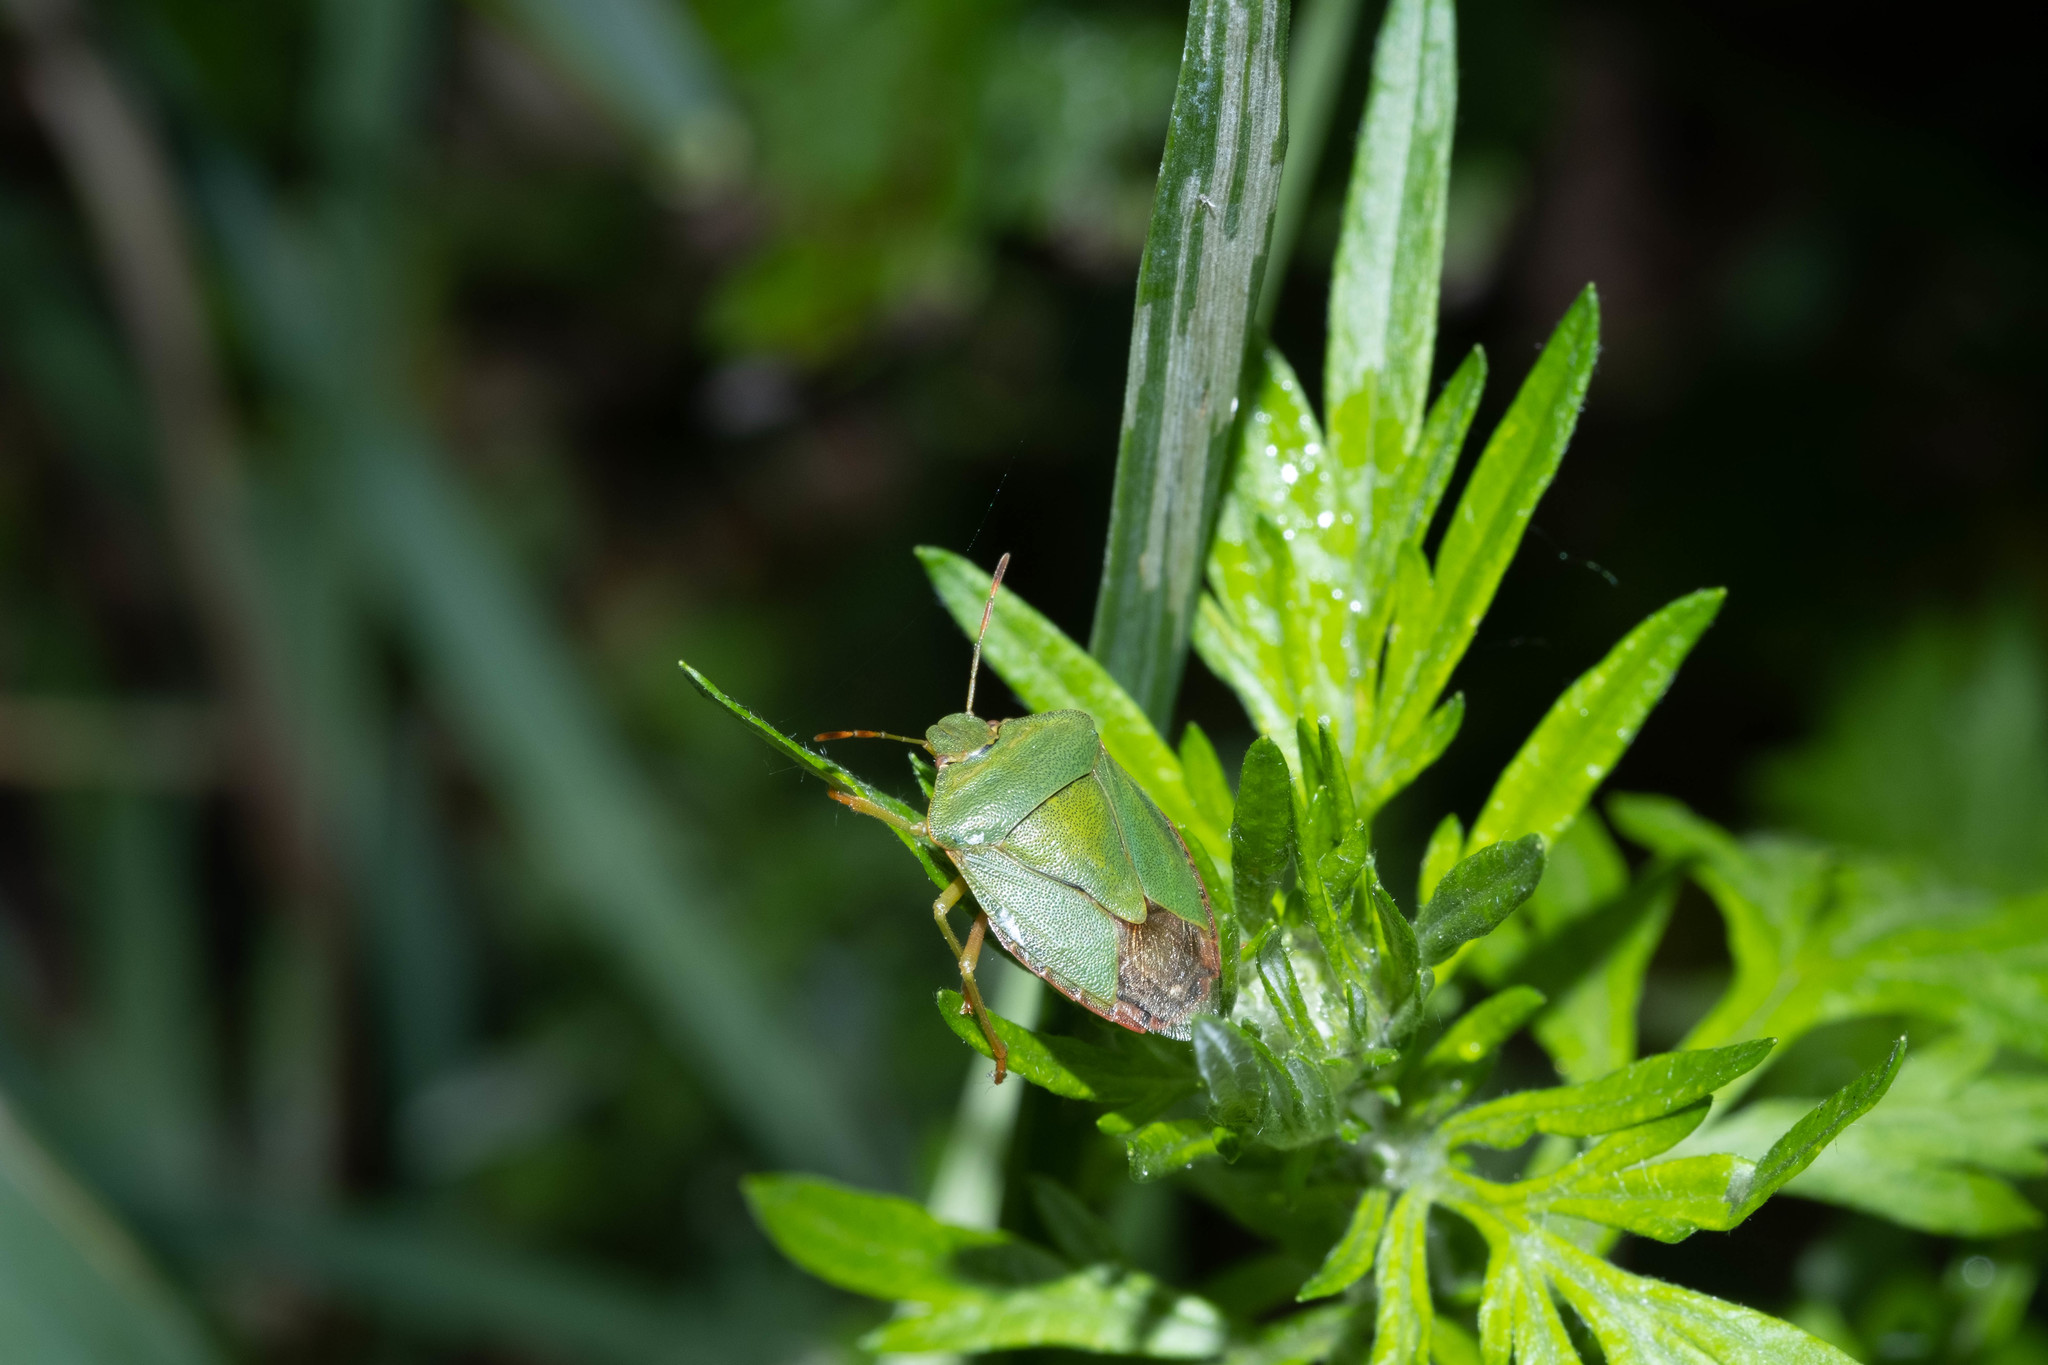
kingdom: Animalia
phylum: Arthropoda
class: Insecta
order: Hemiptera
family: Pentatomidae
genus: Palomena
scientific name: Palomena prasina
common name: Green shieldbug
